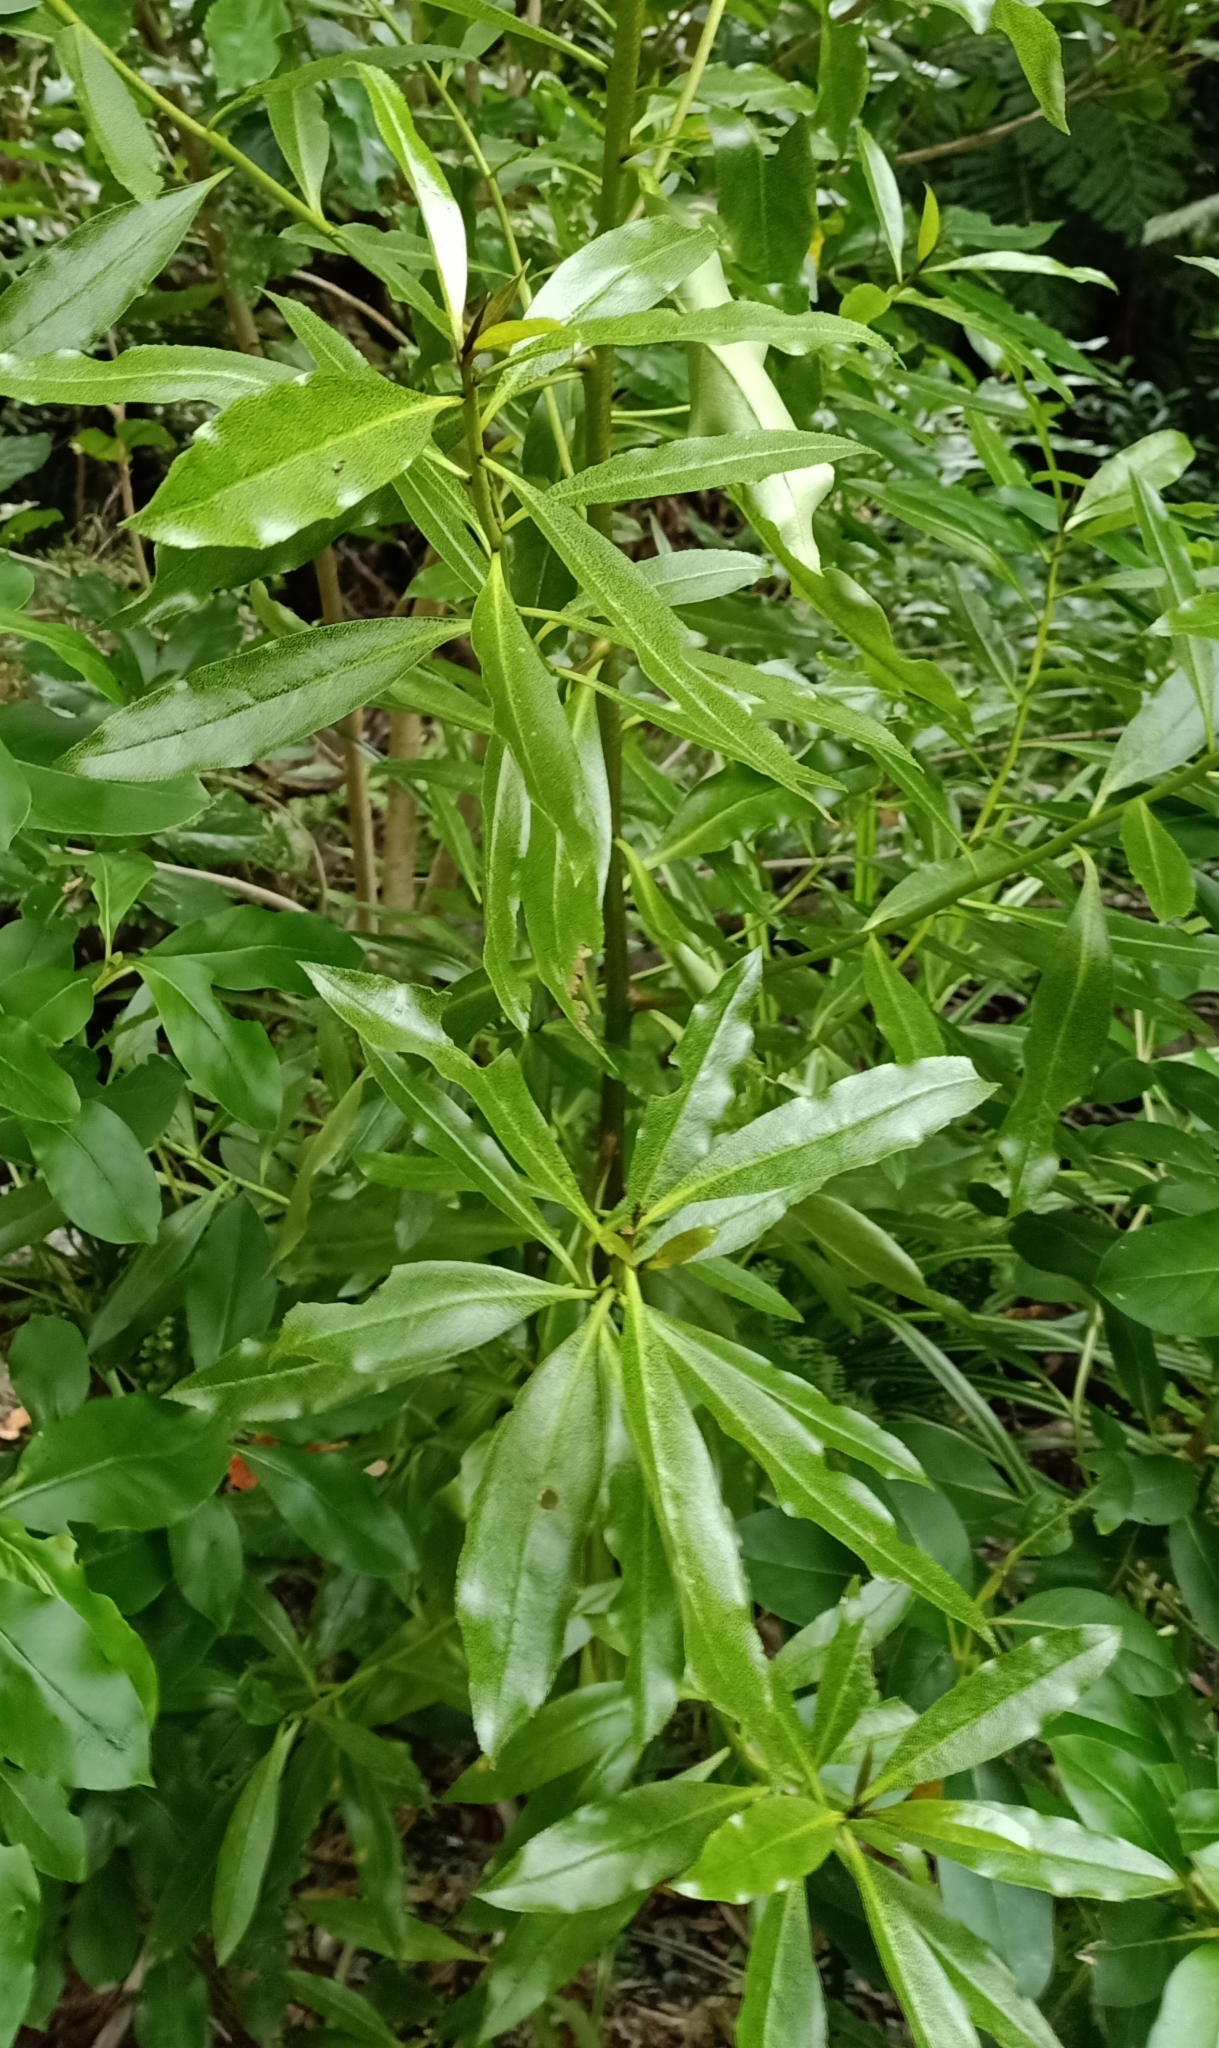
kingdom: Plantae
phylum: Tracheophyta
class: Magnoliopsida
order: Lamiales
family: Scrophulariaceae
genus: Myoporum
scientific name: Myoporum laetum
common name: Ngaio tree
